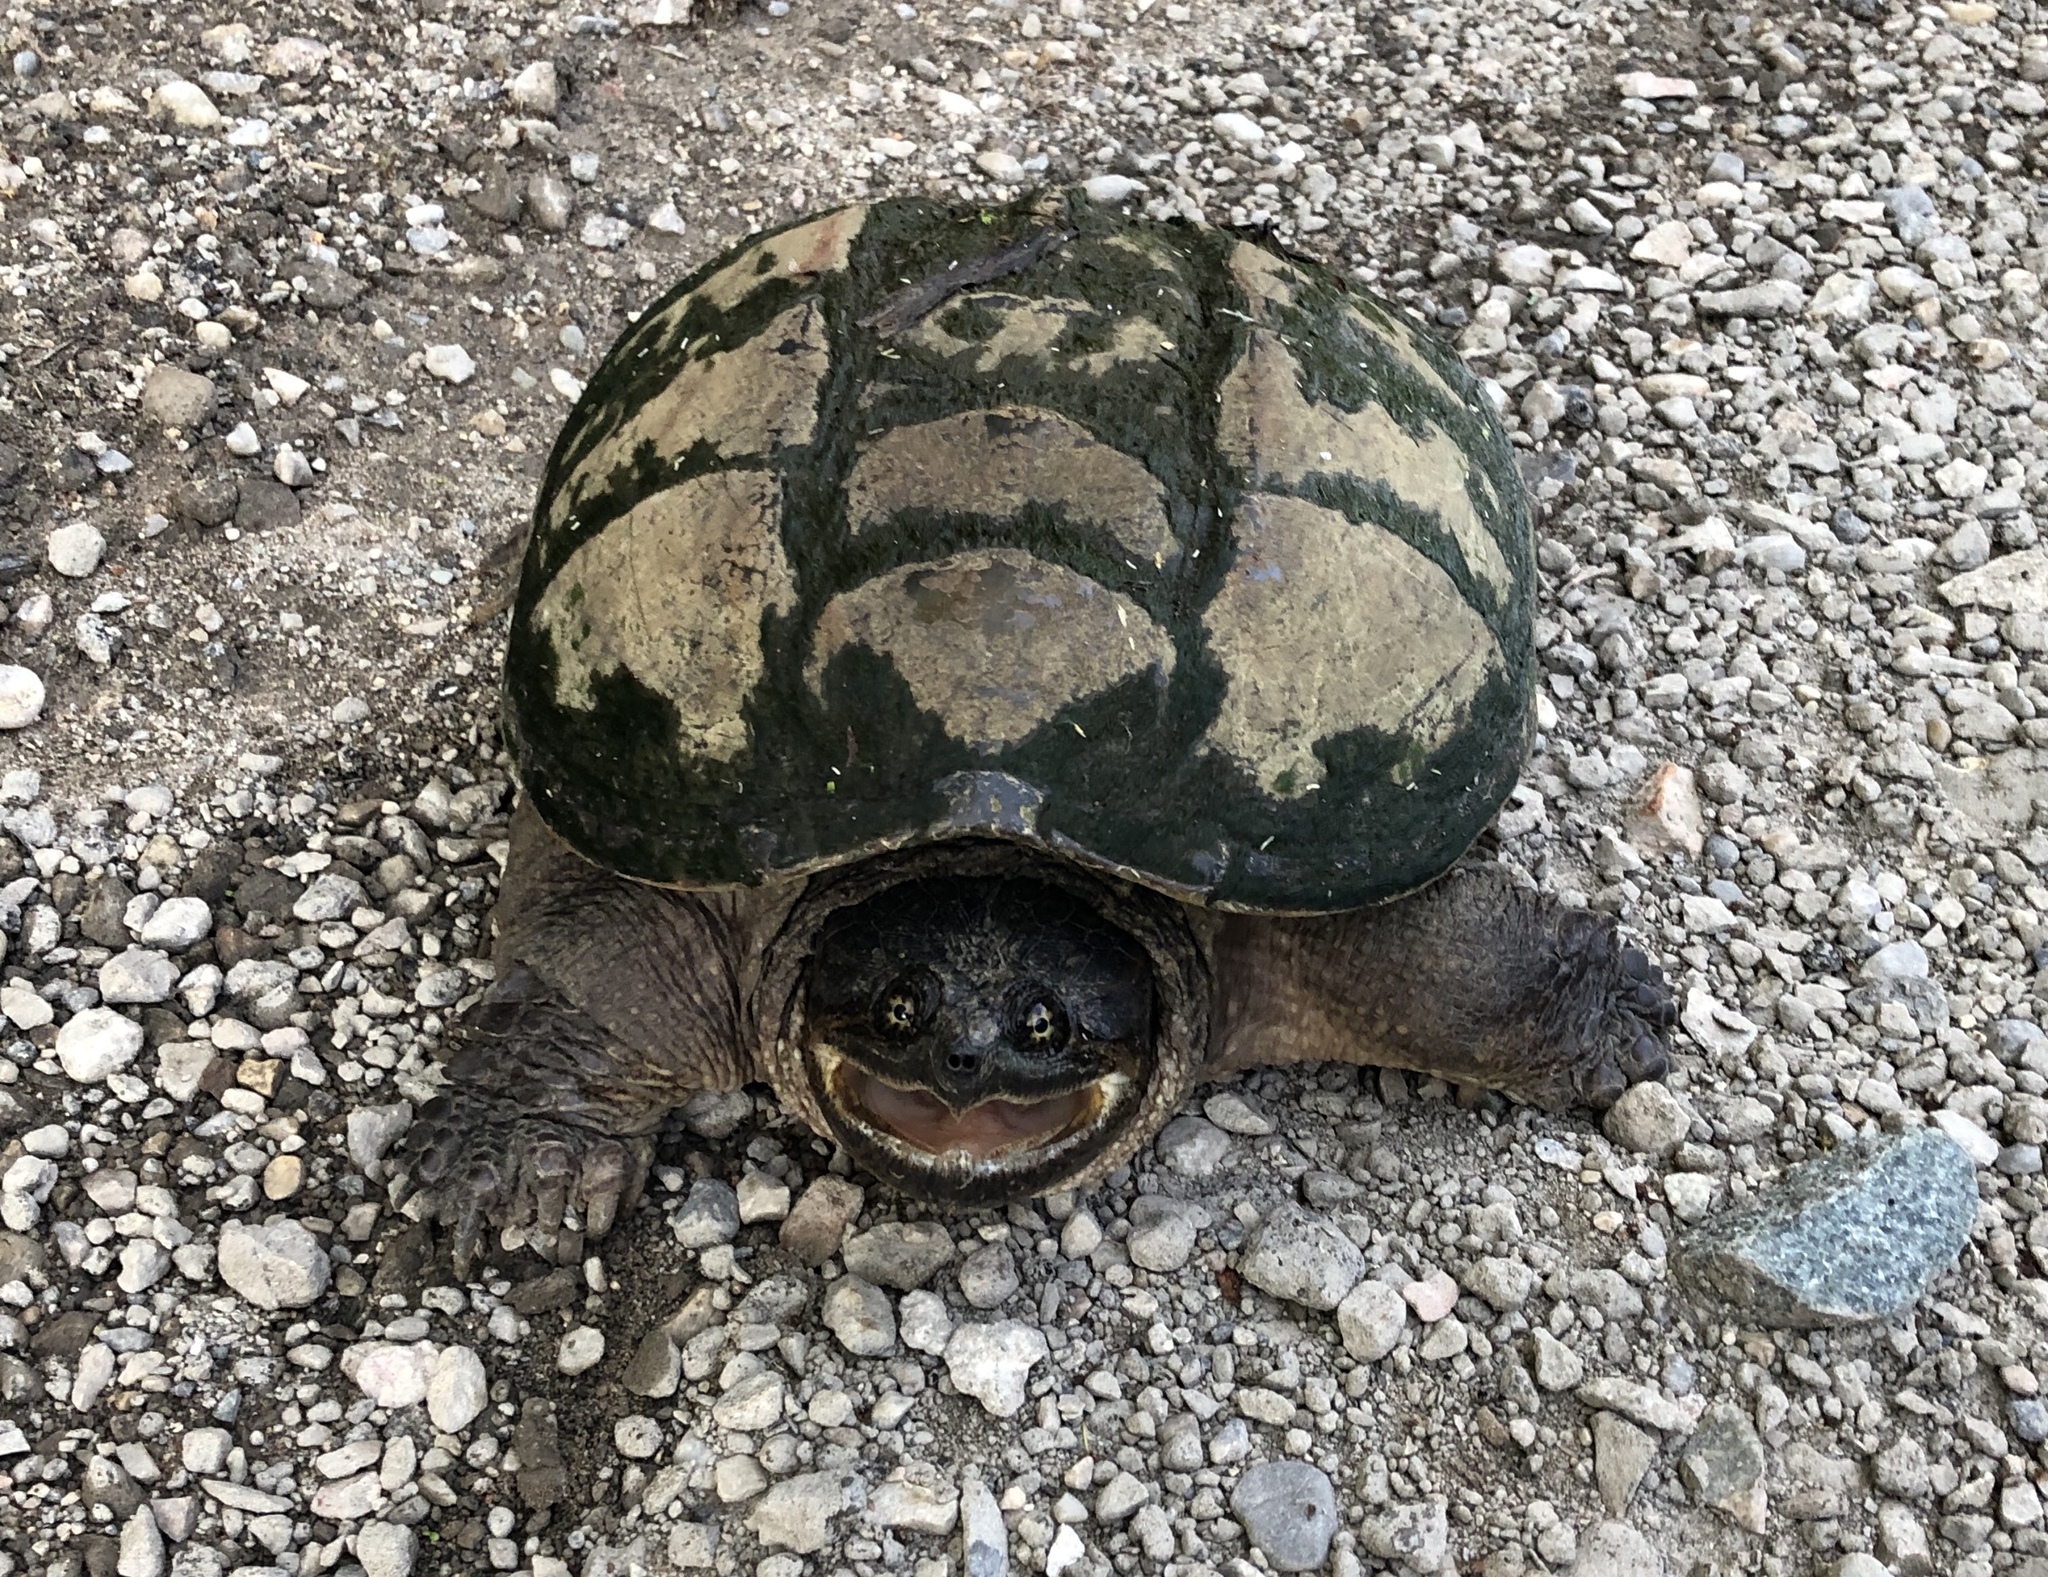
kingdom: Animalia
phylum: Chordata
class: Testudines
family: Chelydridae
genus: Chelydra
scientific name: Chelydra serpentina
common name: Common snapping turtle
